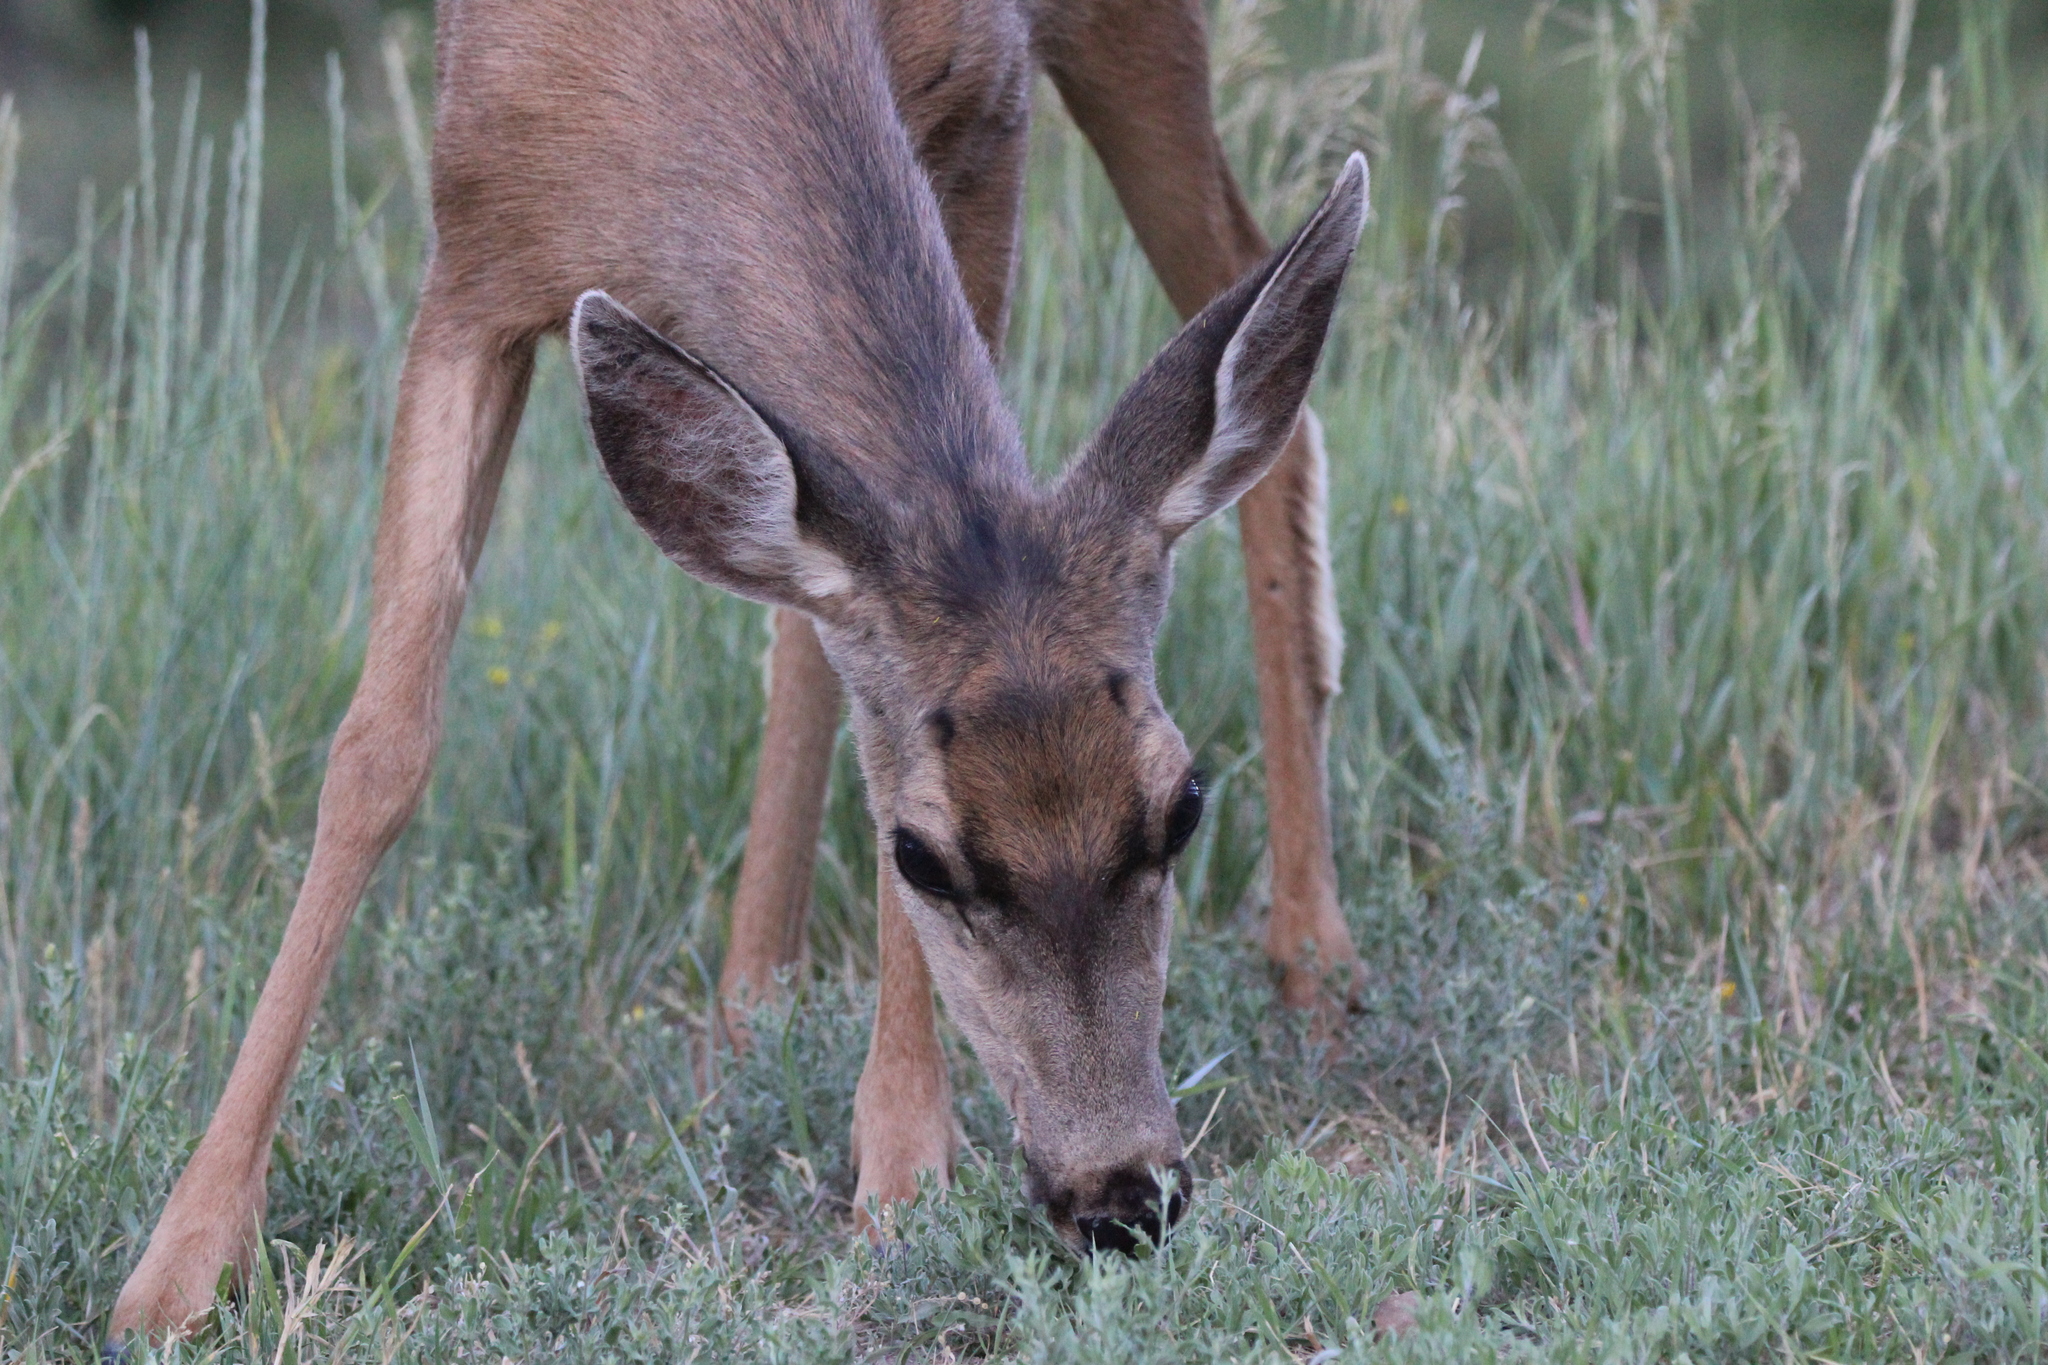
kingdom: Animalia
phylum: Chordata
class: Mammalia
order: Artiodactyla
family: Cervidae
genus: Odocoileus
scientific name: Odocoileus hemionus
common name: Mule deer
